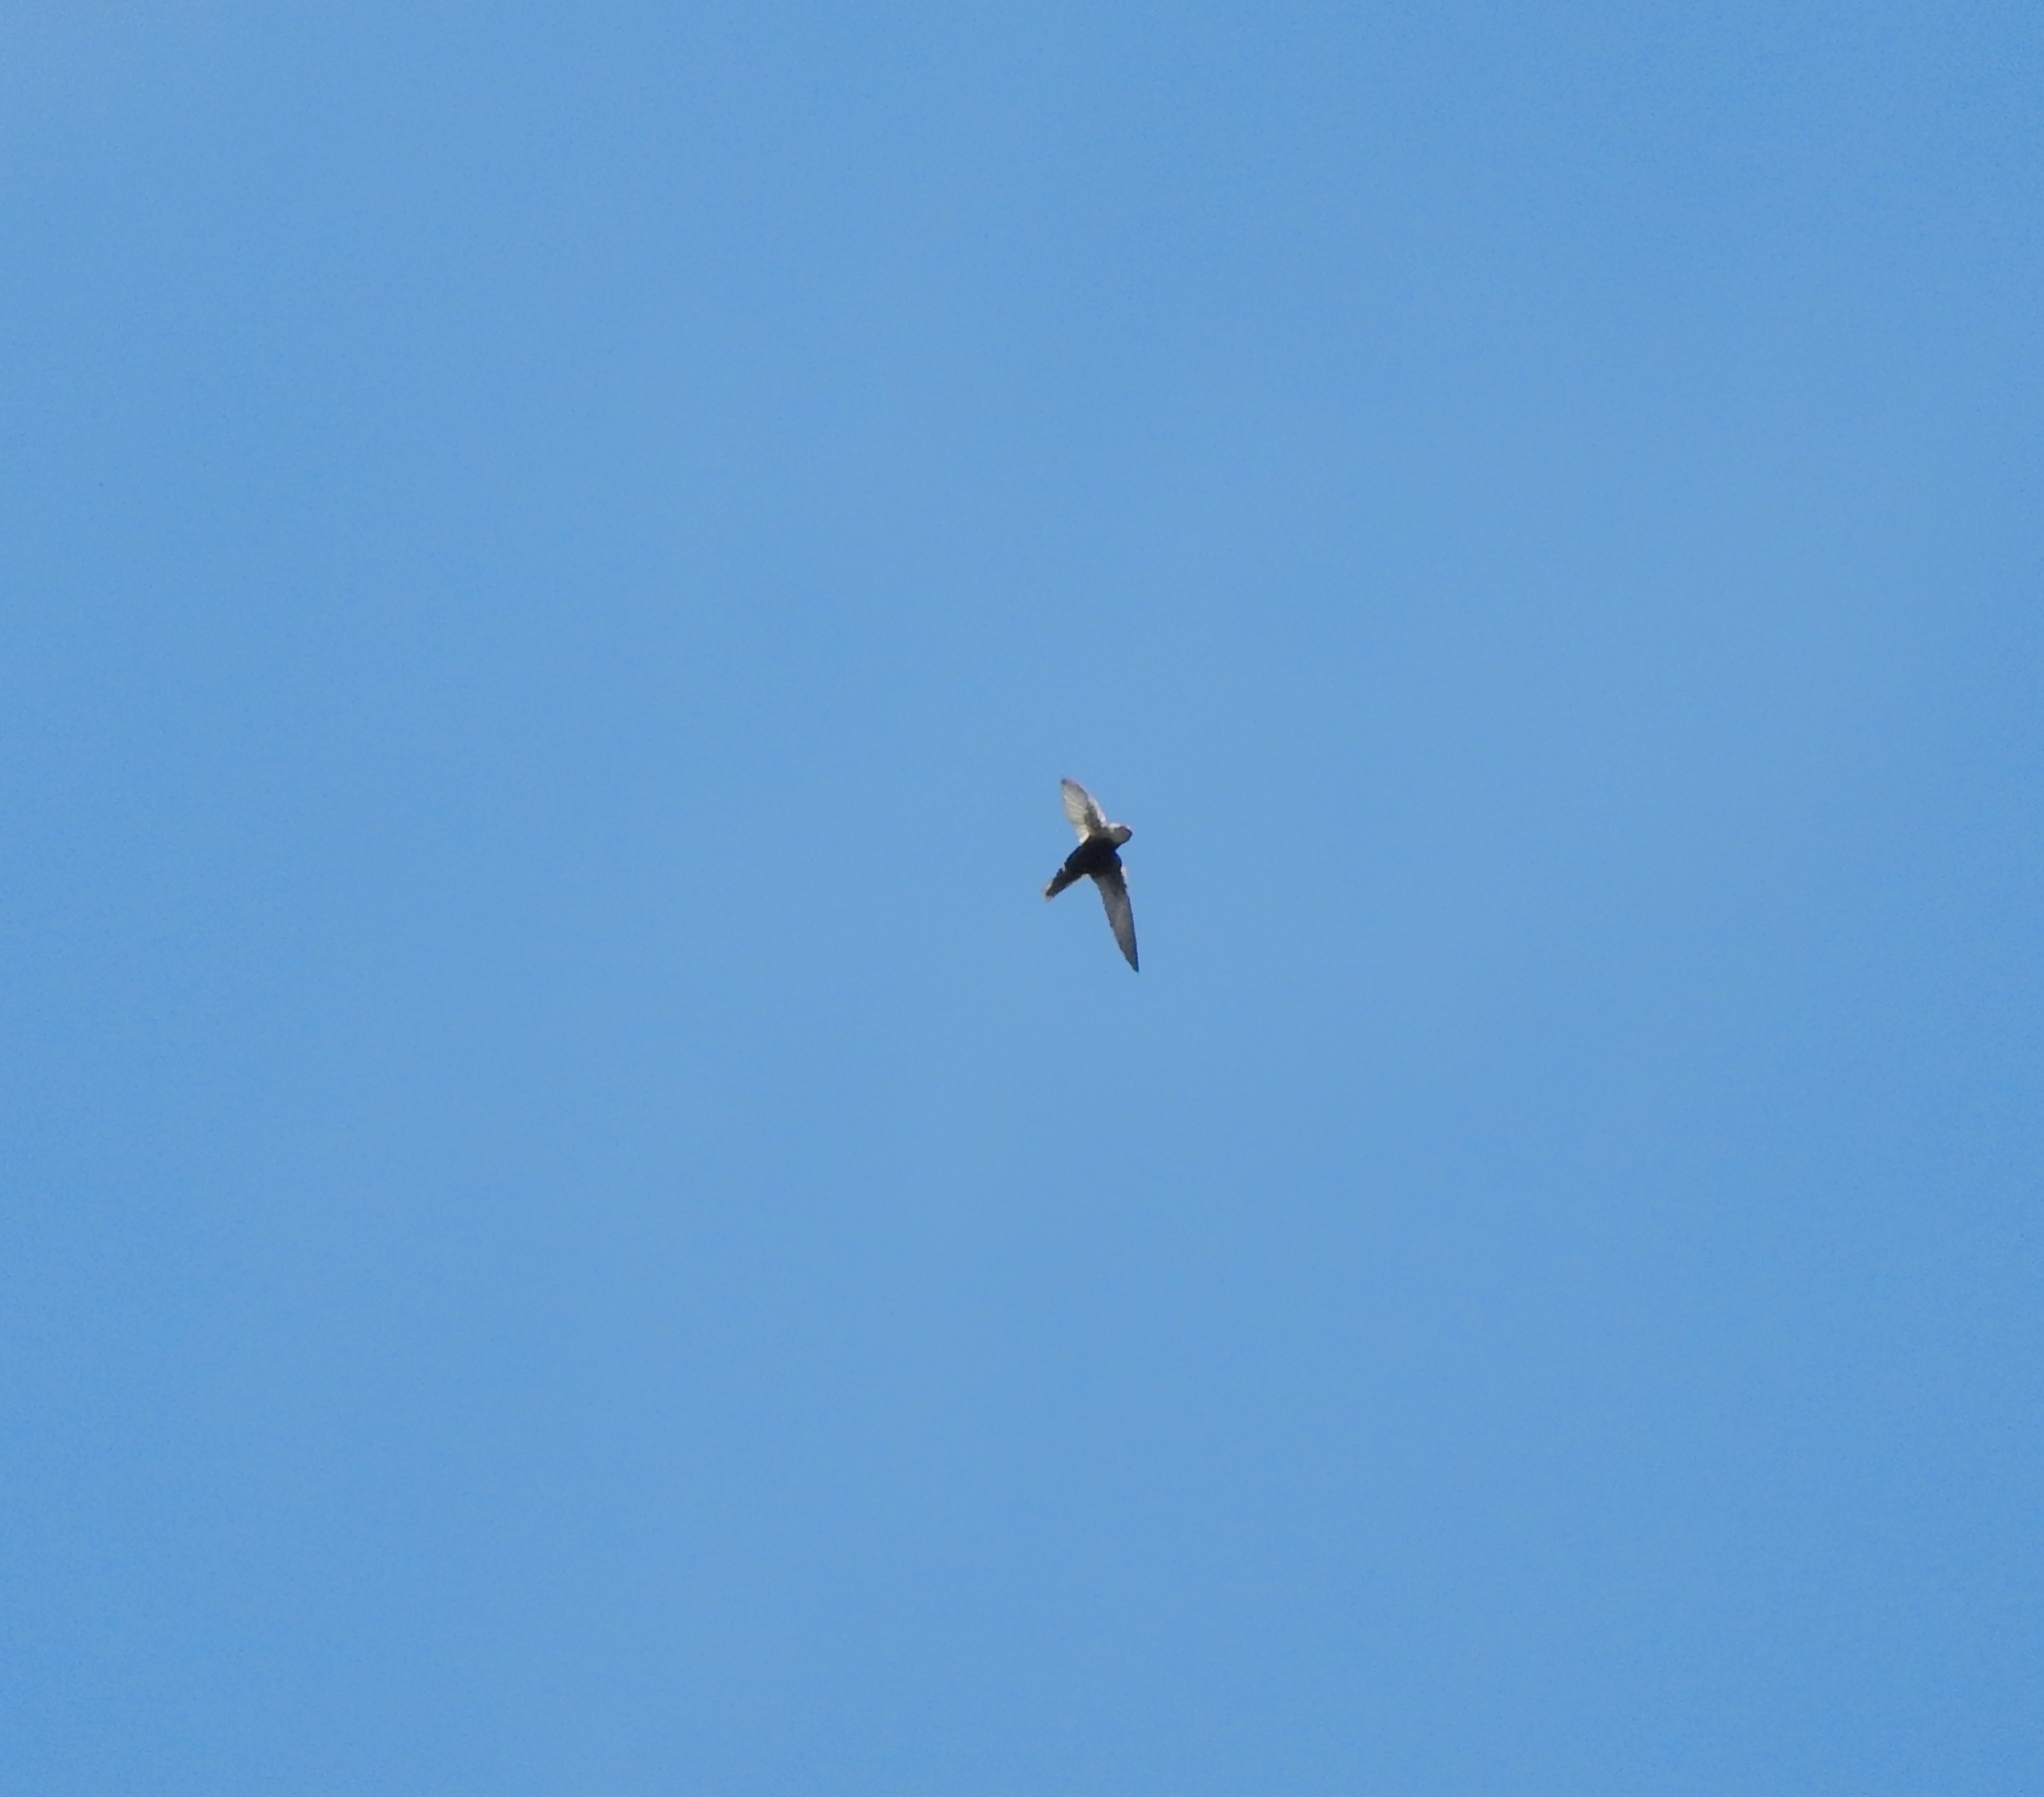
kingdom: Animalia
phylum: Chordata
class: Aves
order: Apodiformes
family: Apodidae
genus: Apus
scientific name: Apus affinis
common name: Little swift
